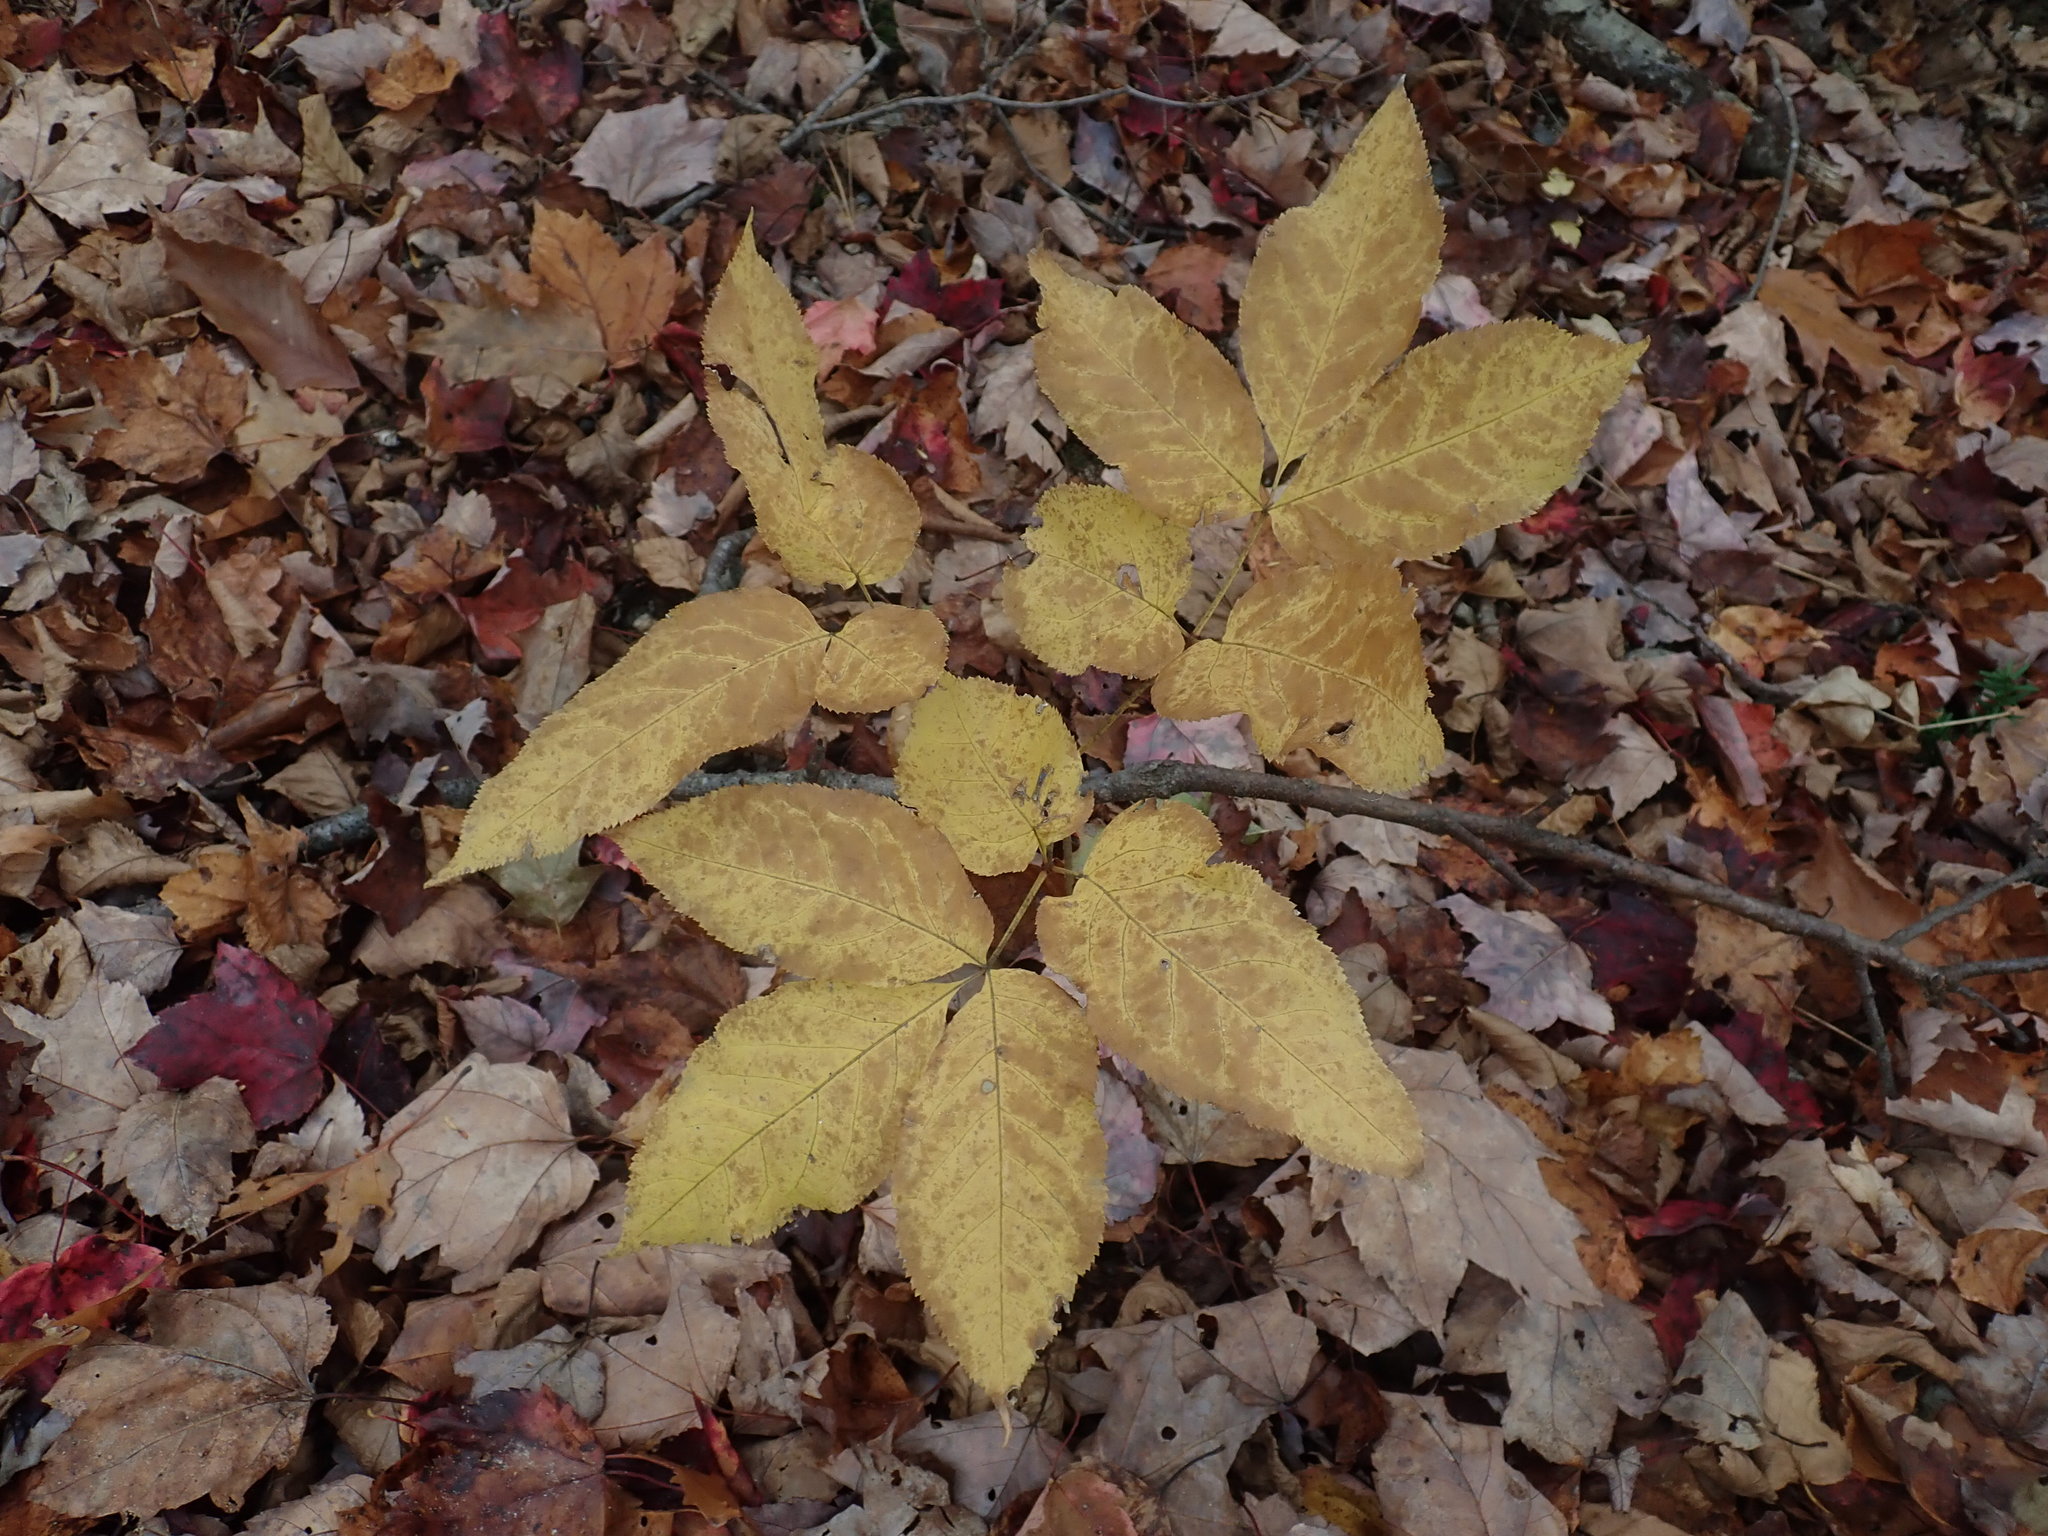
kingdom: Plantae
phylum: Tracheophyta
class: Magnoliopsida
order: Apiales
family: Araliaceae
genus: Aralia
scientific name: Aralia nudicaulis
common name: Wild sarsaparilla
